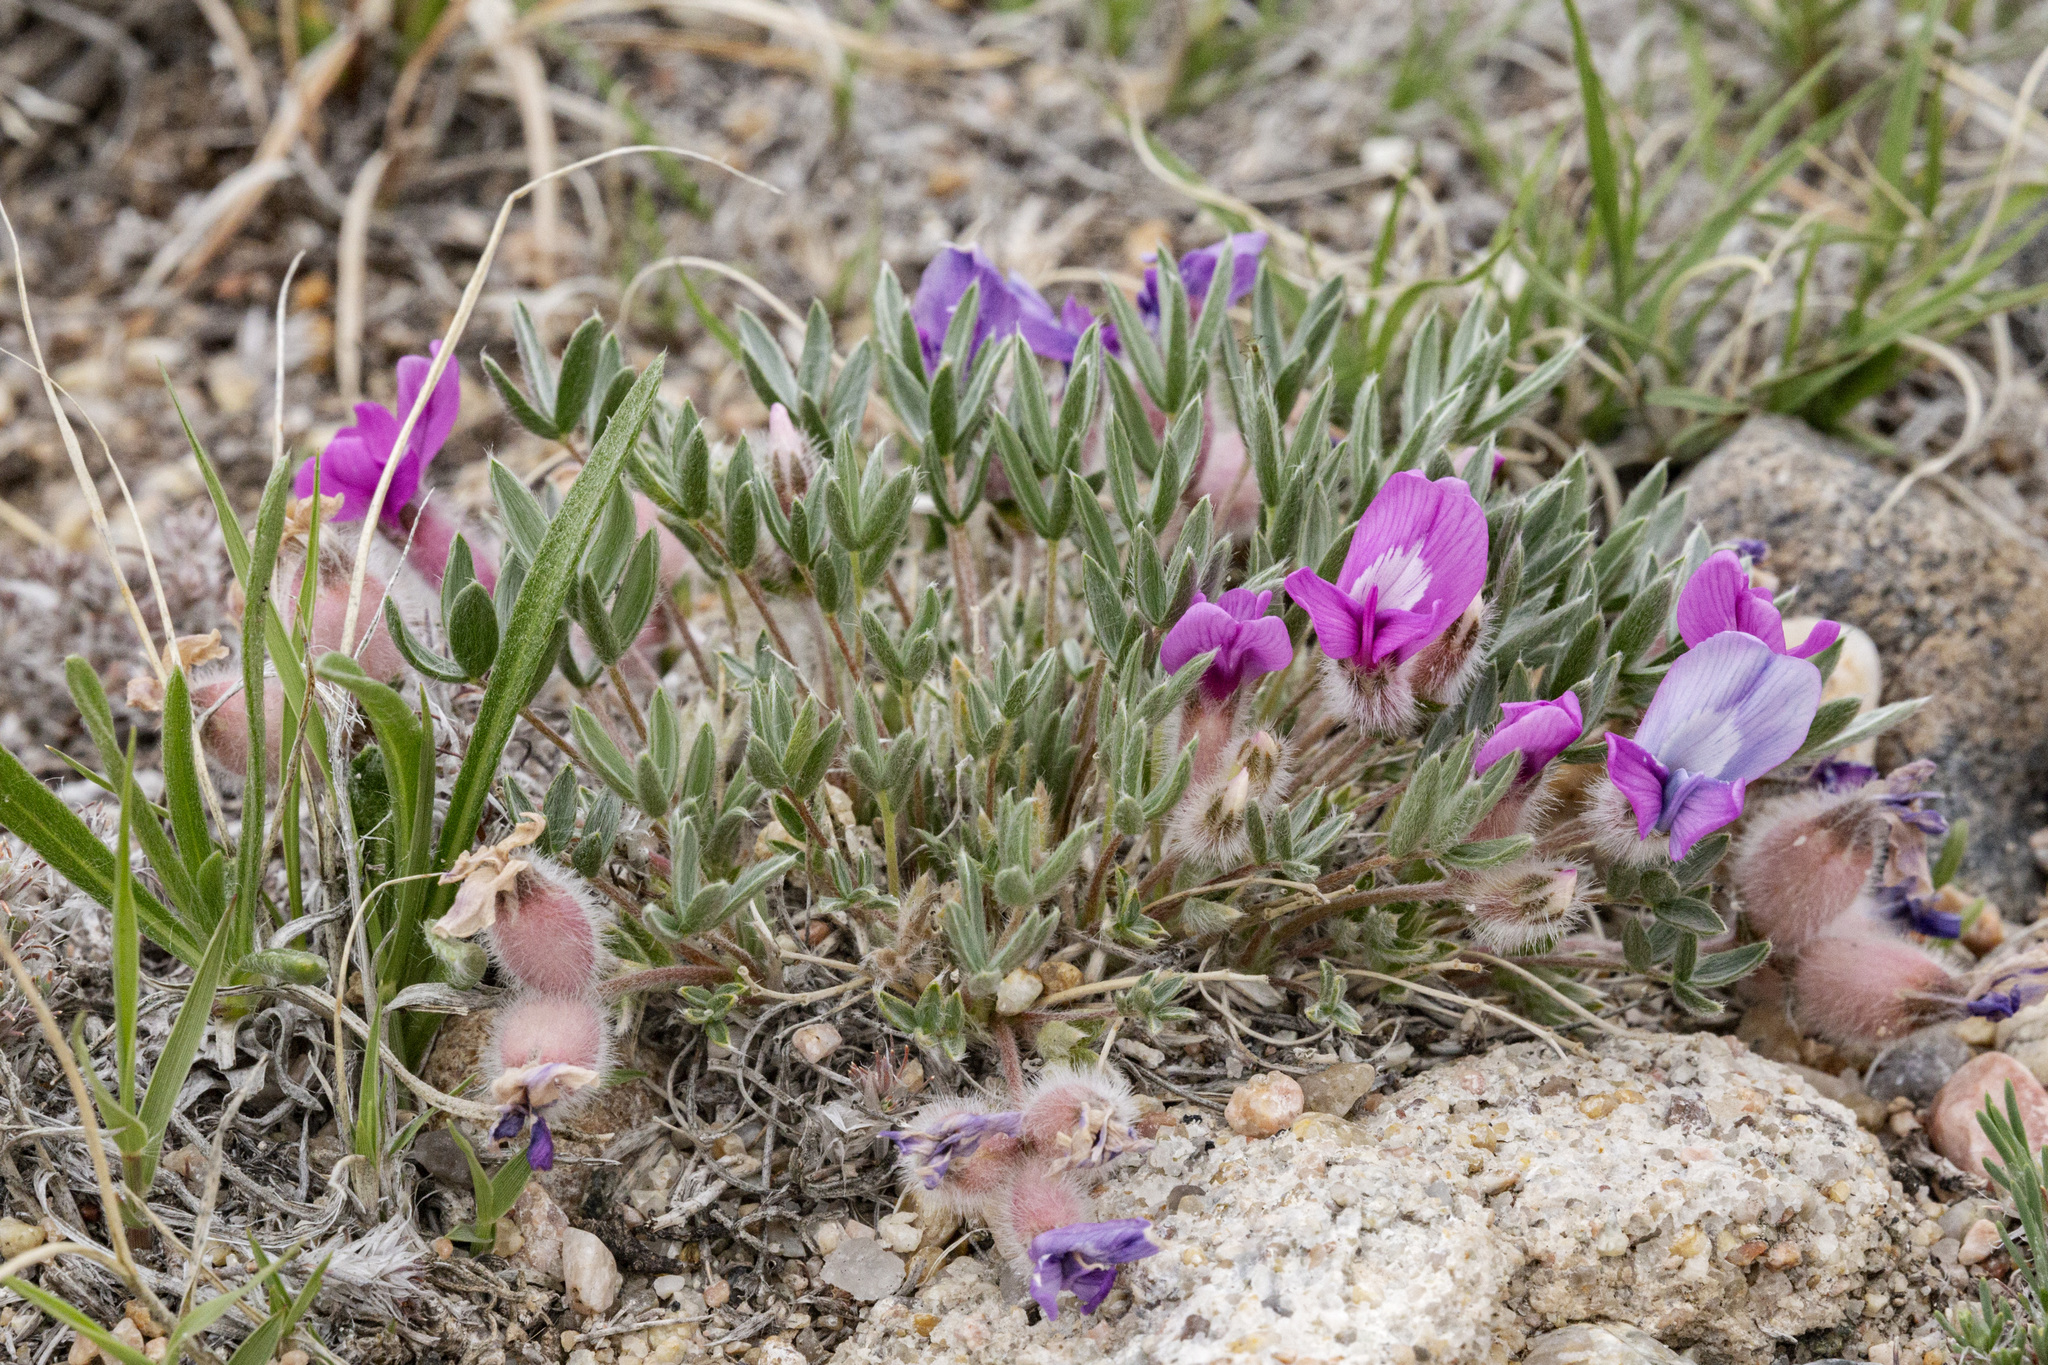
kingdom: Plantae
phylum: Tracheophyta
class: Magnoliopsida
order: Fabales
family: Fabaceae
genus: Oxytropis
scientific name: Oxytropis multiceps
